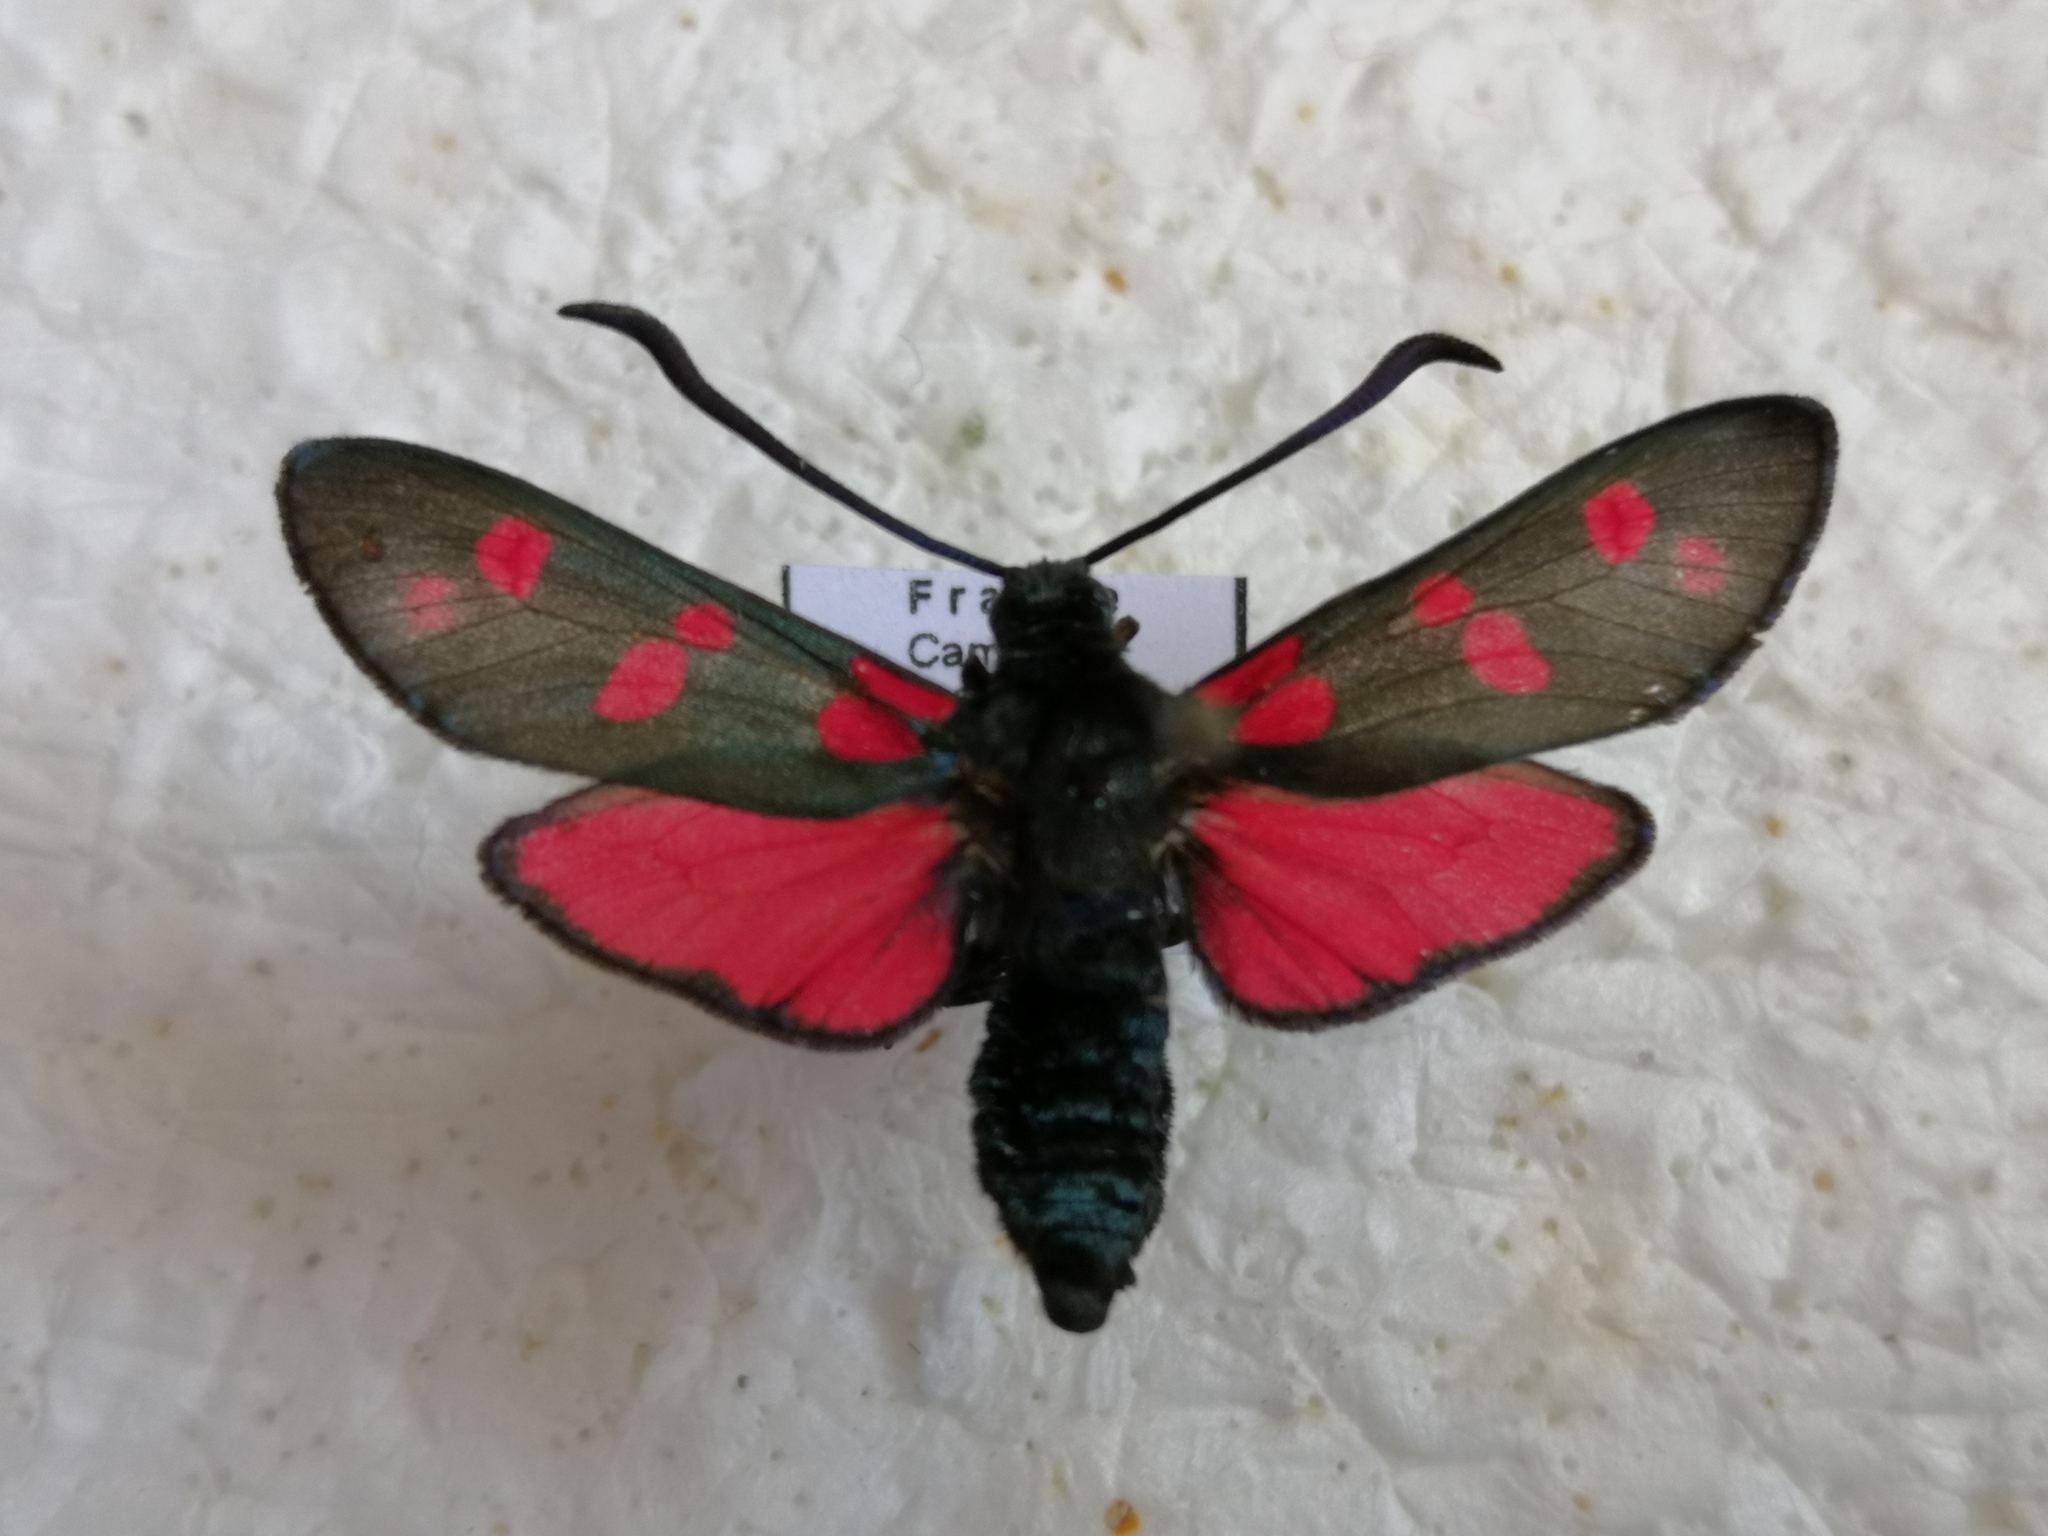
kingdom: Animalia
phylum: Arthropoda
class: Insecta
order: Lepidoptera
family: Zygaenidae
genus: Zygaena
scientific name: Zygaena filipendulae
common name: Six-spot burnet
